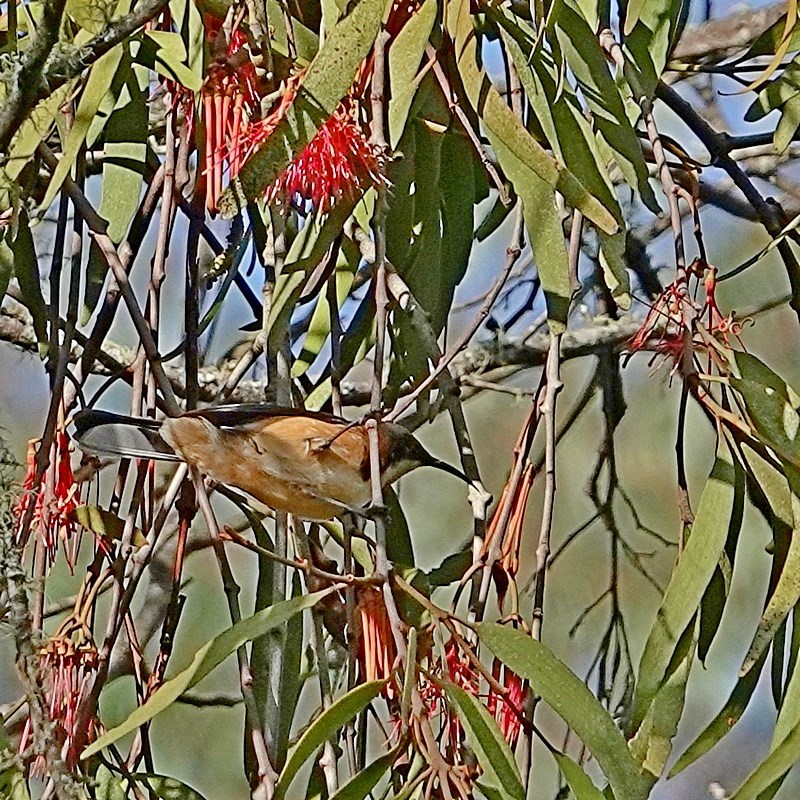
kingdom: Animalia
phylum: Chordata
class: Aves
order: Passeriformes
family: Meliphagidae
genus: Acanthorhynchus
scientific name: Acanthorhynchus tenuirostris
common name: Eastern spinebill
